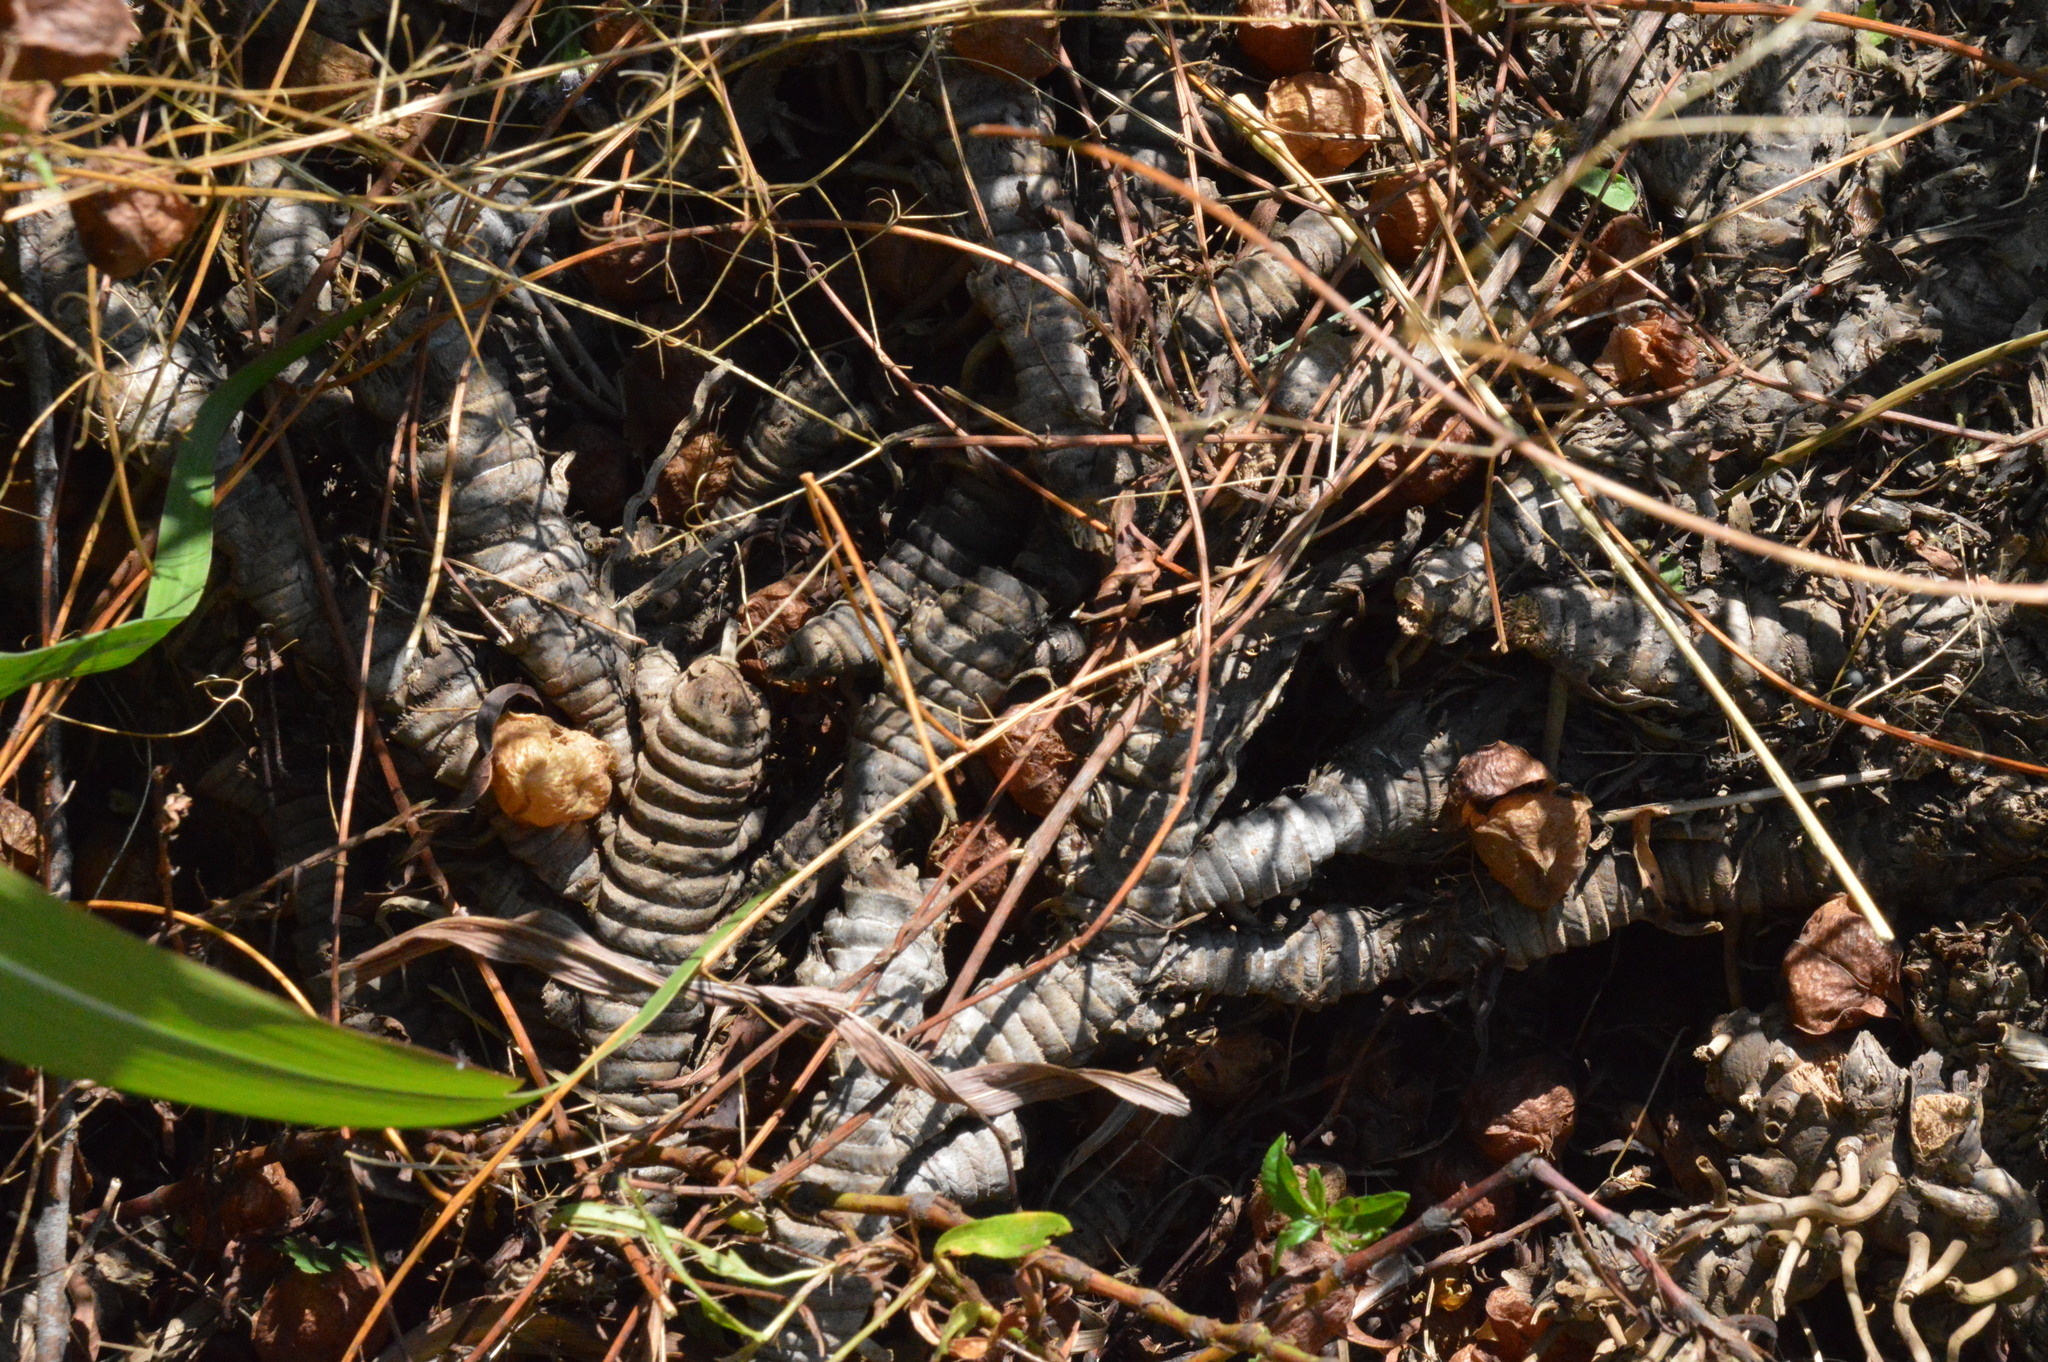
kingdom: Plantae
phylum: Tracheophyta
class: Liliopsida
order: Poales
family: Poaceae
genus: Tripsacum
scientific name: Tripsacum dactyloides
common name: Buffalo-grass
